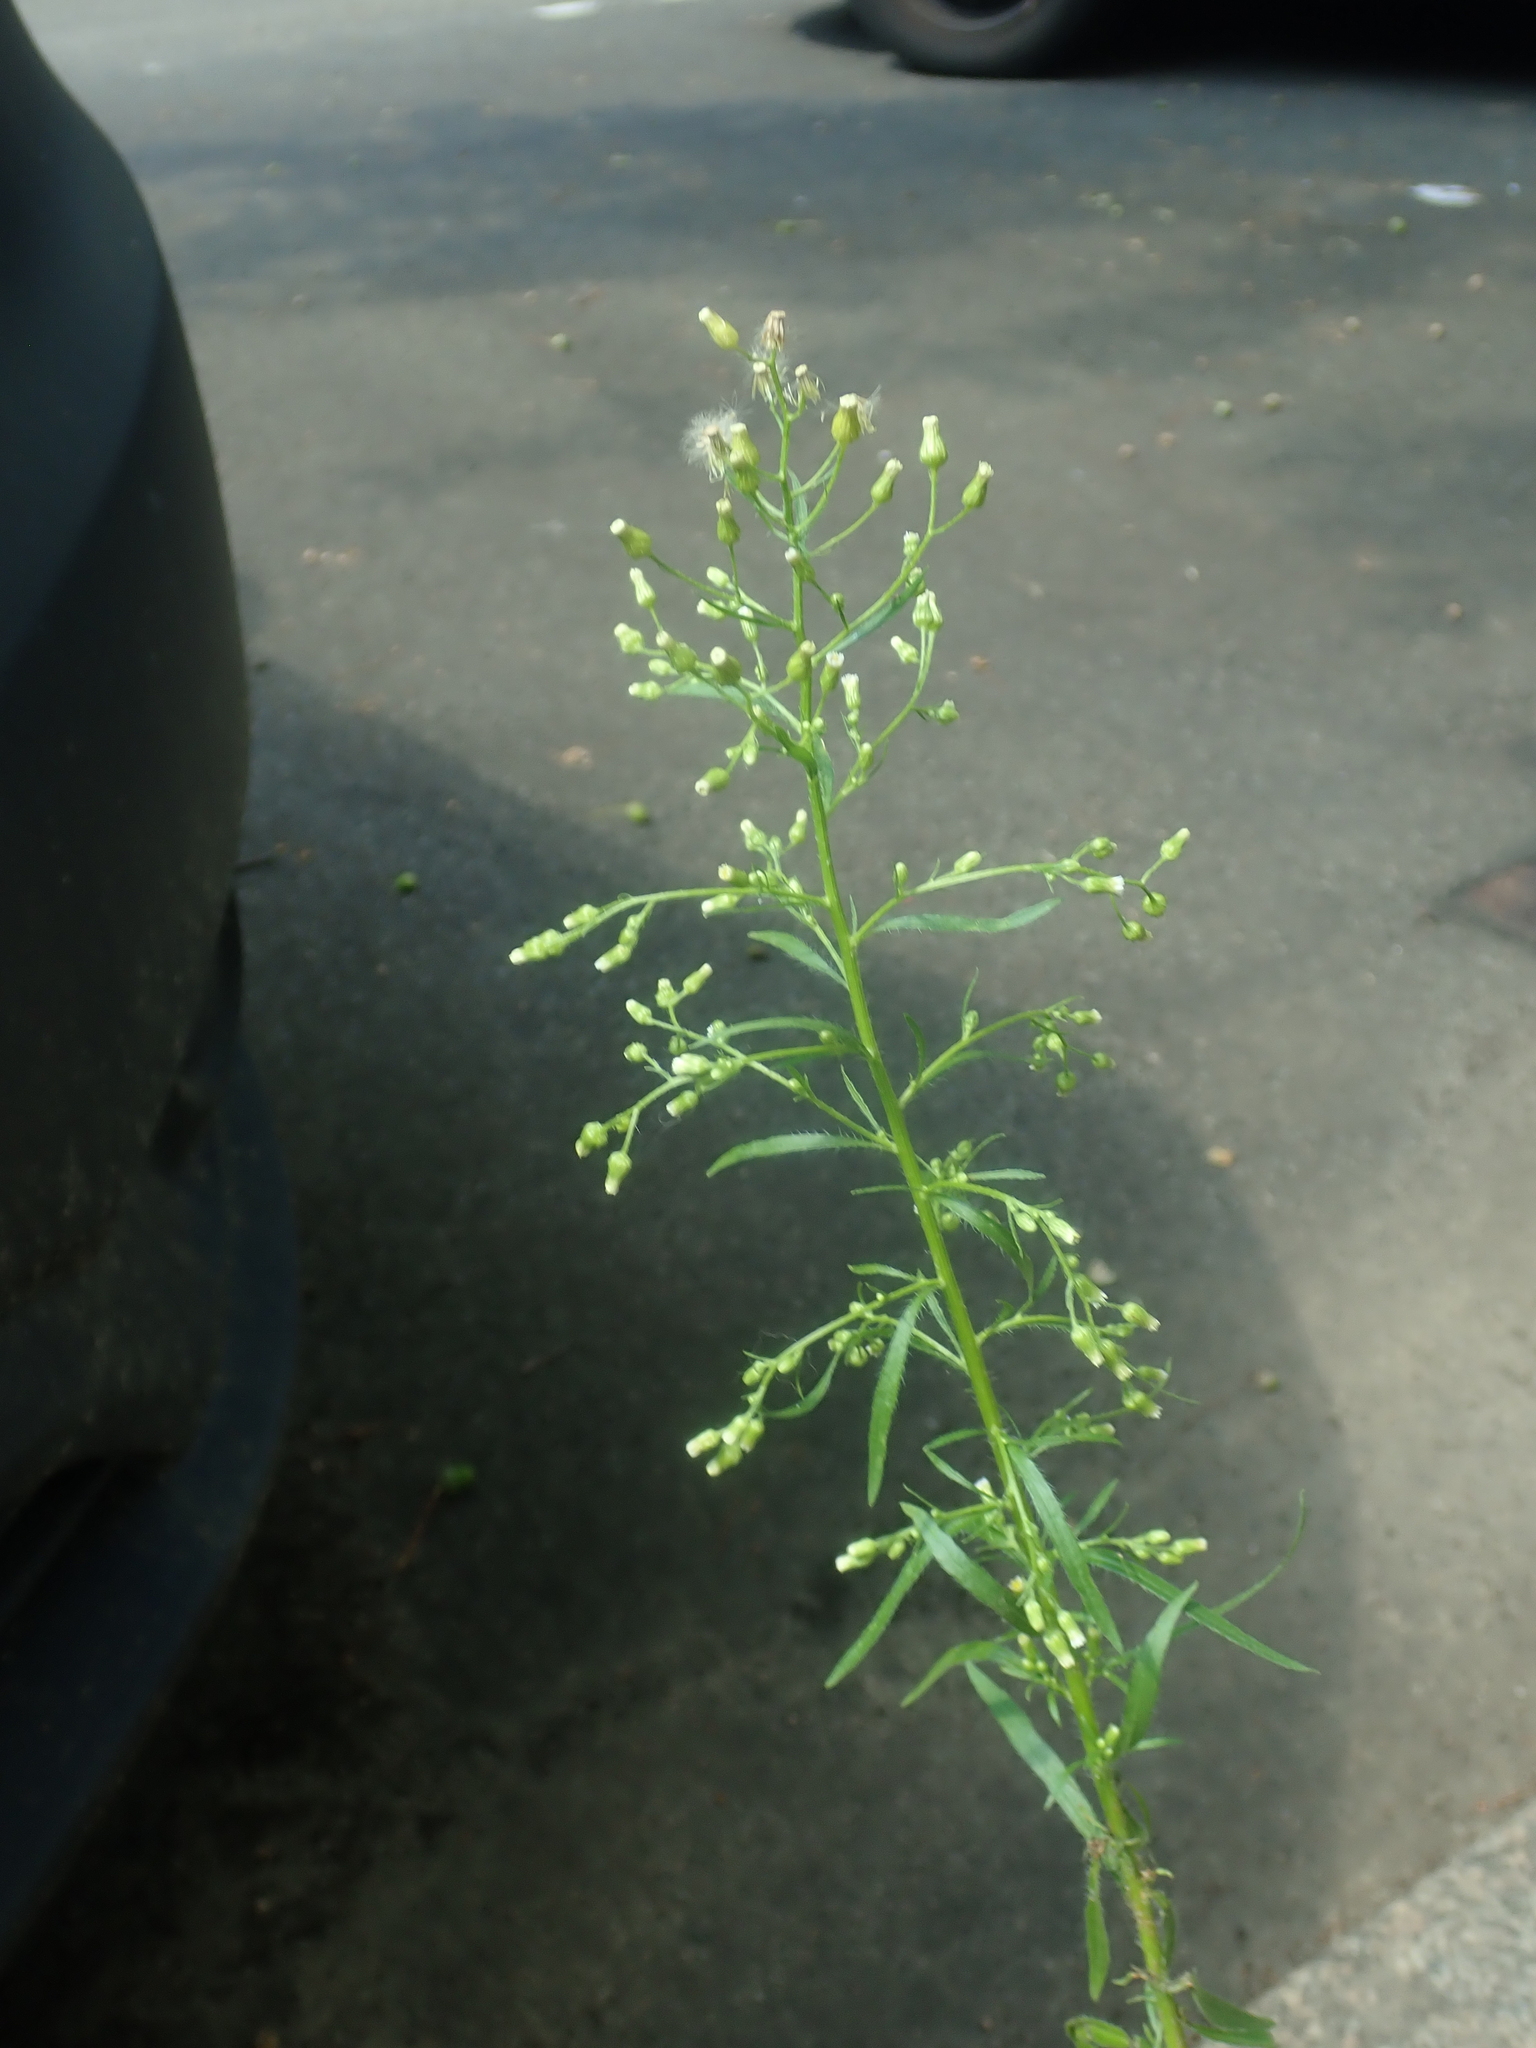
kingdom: Plantae
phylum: Tracheophyta
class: Magnoliopsida
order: Asterales
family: Asteraceae
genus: Erigeron
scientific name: Erigeron canadensis
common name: Canadian fleabane
